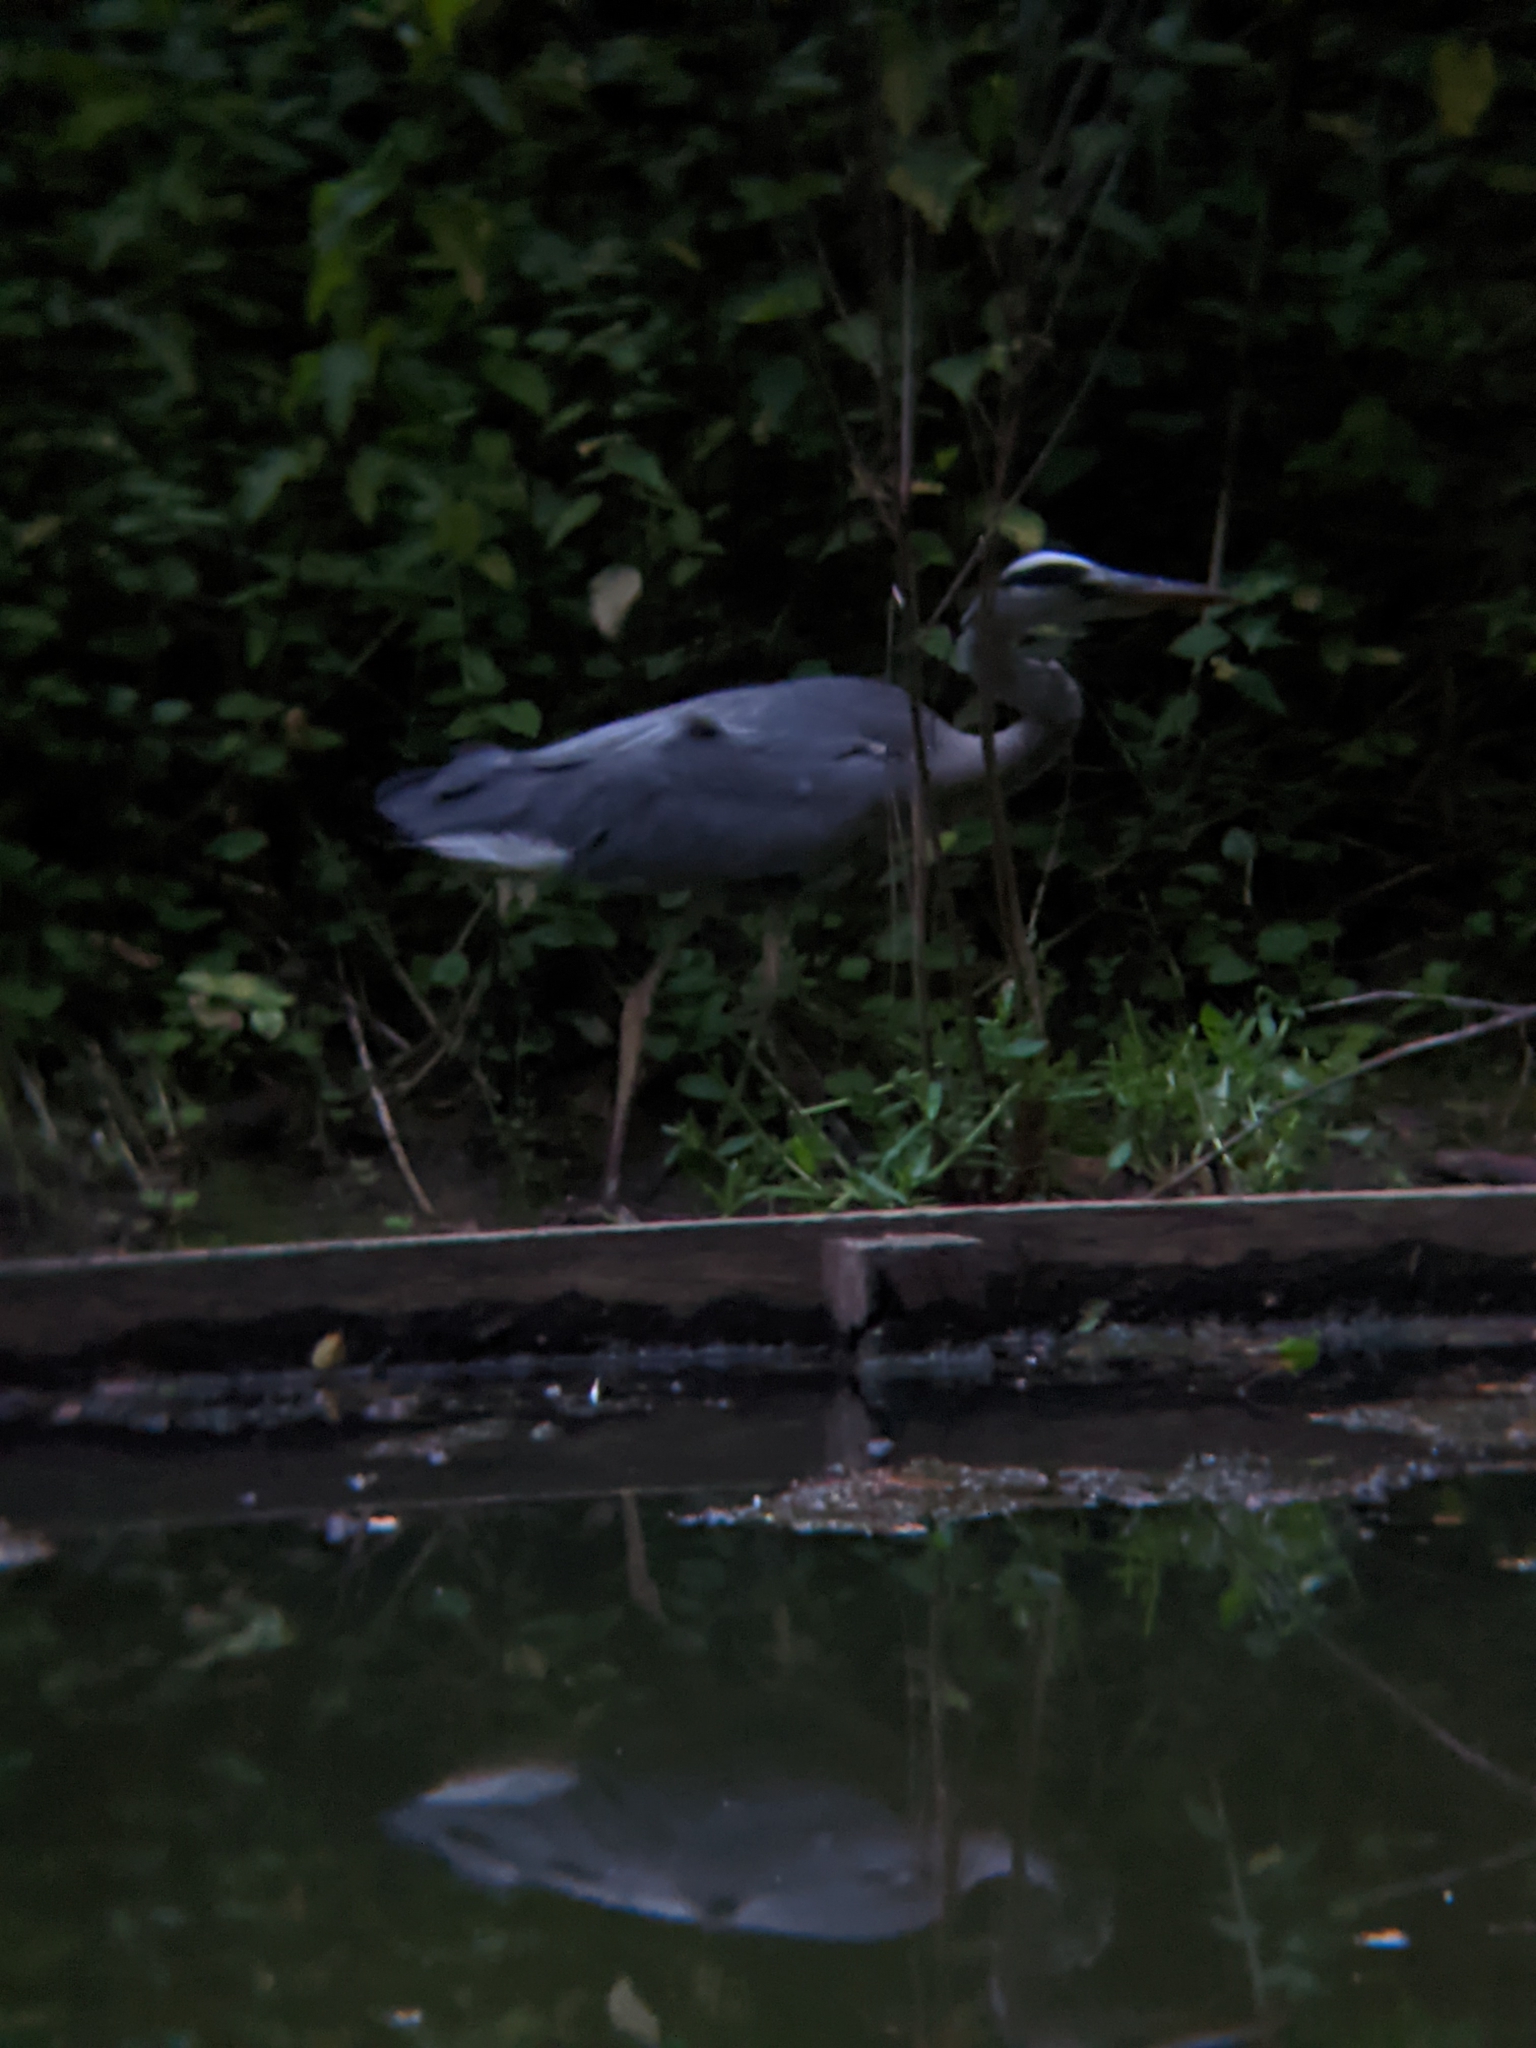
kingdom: Animalia
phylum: Chordata
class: Aves
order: Pelecaniformes
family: Ardeidae
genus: Ardea
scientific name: Ardea cinerea
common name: Grey heron
